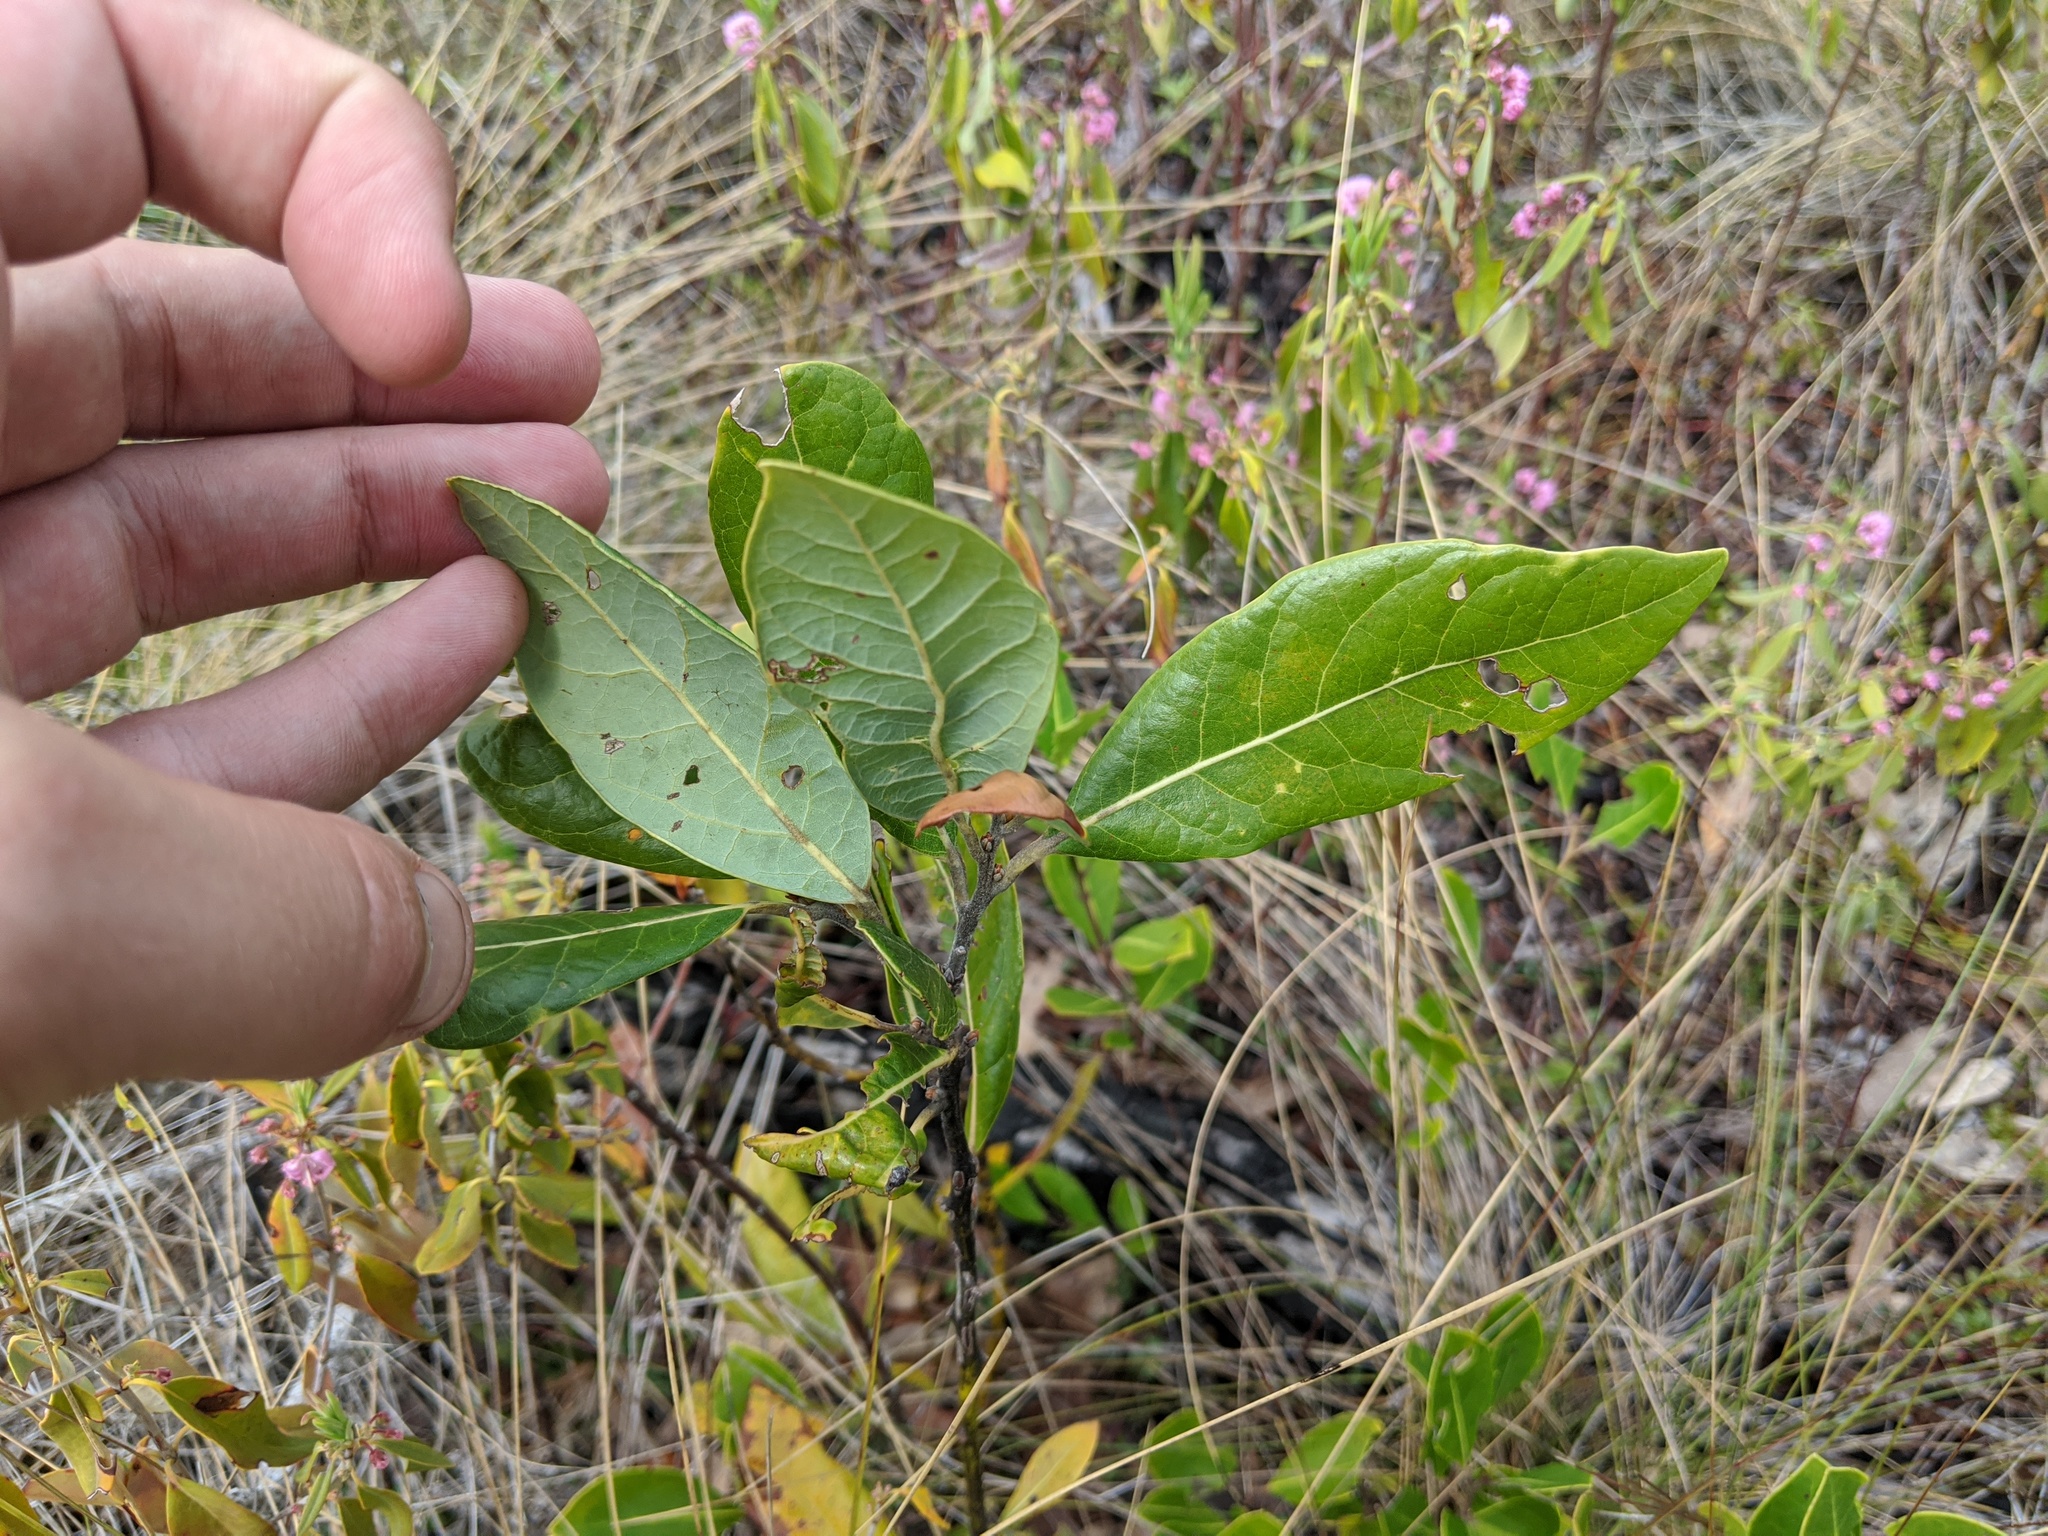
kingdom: Plantae
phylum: Tracheophyta
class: Magnoliopsida
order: Laurales
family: Lauraceae
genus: Persea
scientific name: Persea palustris
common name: Swampbay
